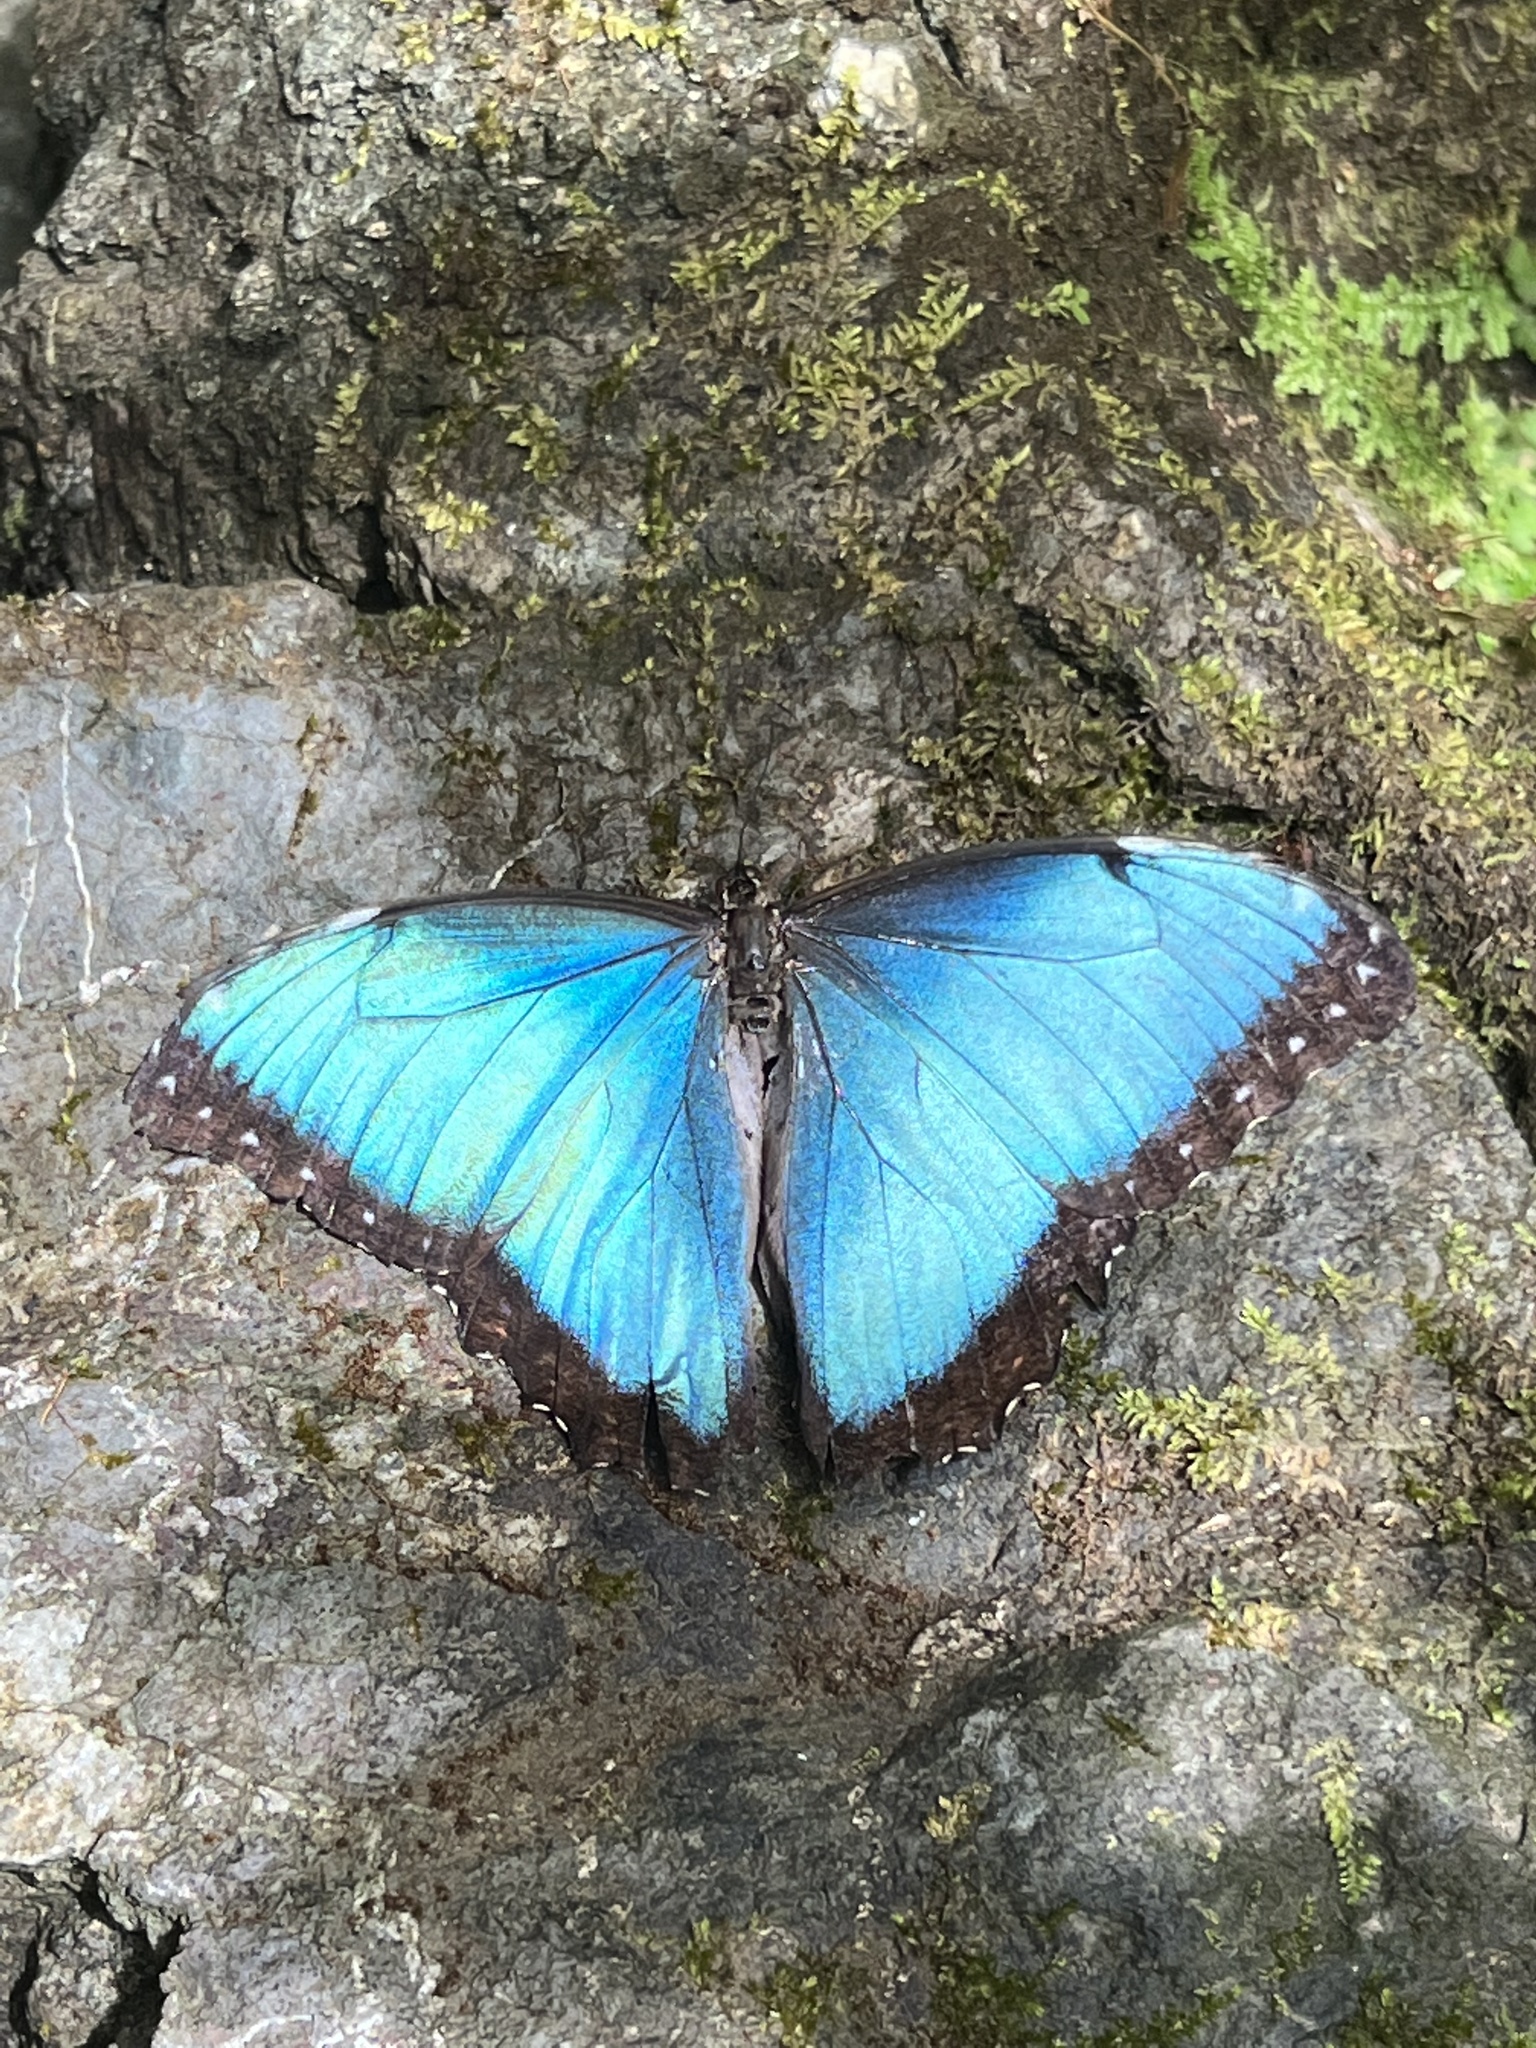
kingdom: Animalia
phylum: Arthropoda
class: Insecta
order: Lepidoptera
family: Nymphalidae
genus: Morpho
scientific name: Morpho helenor
